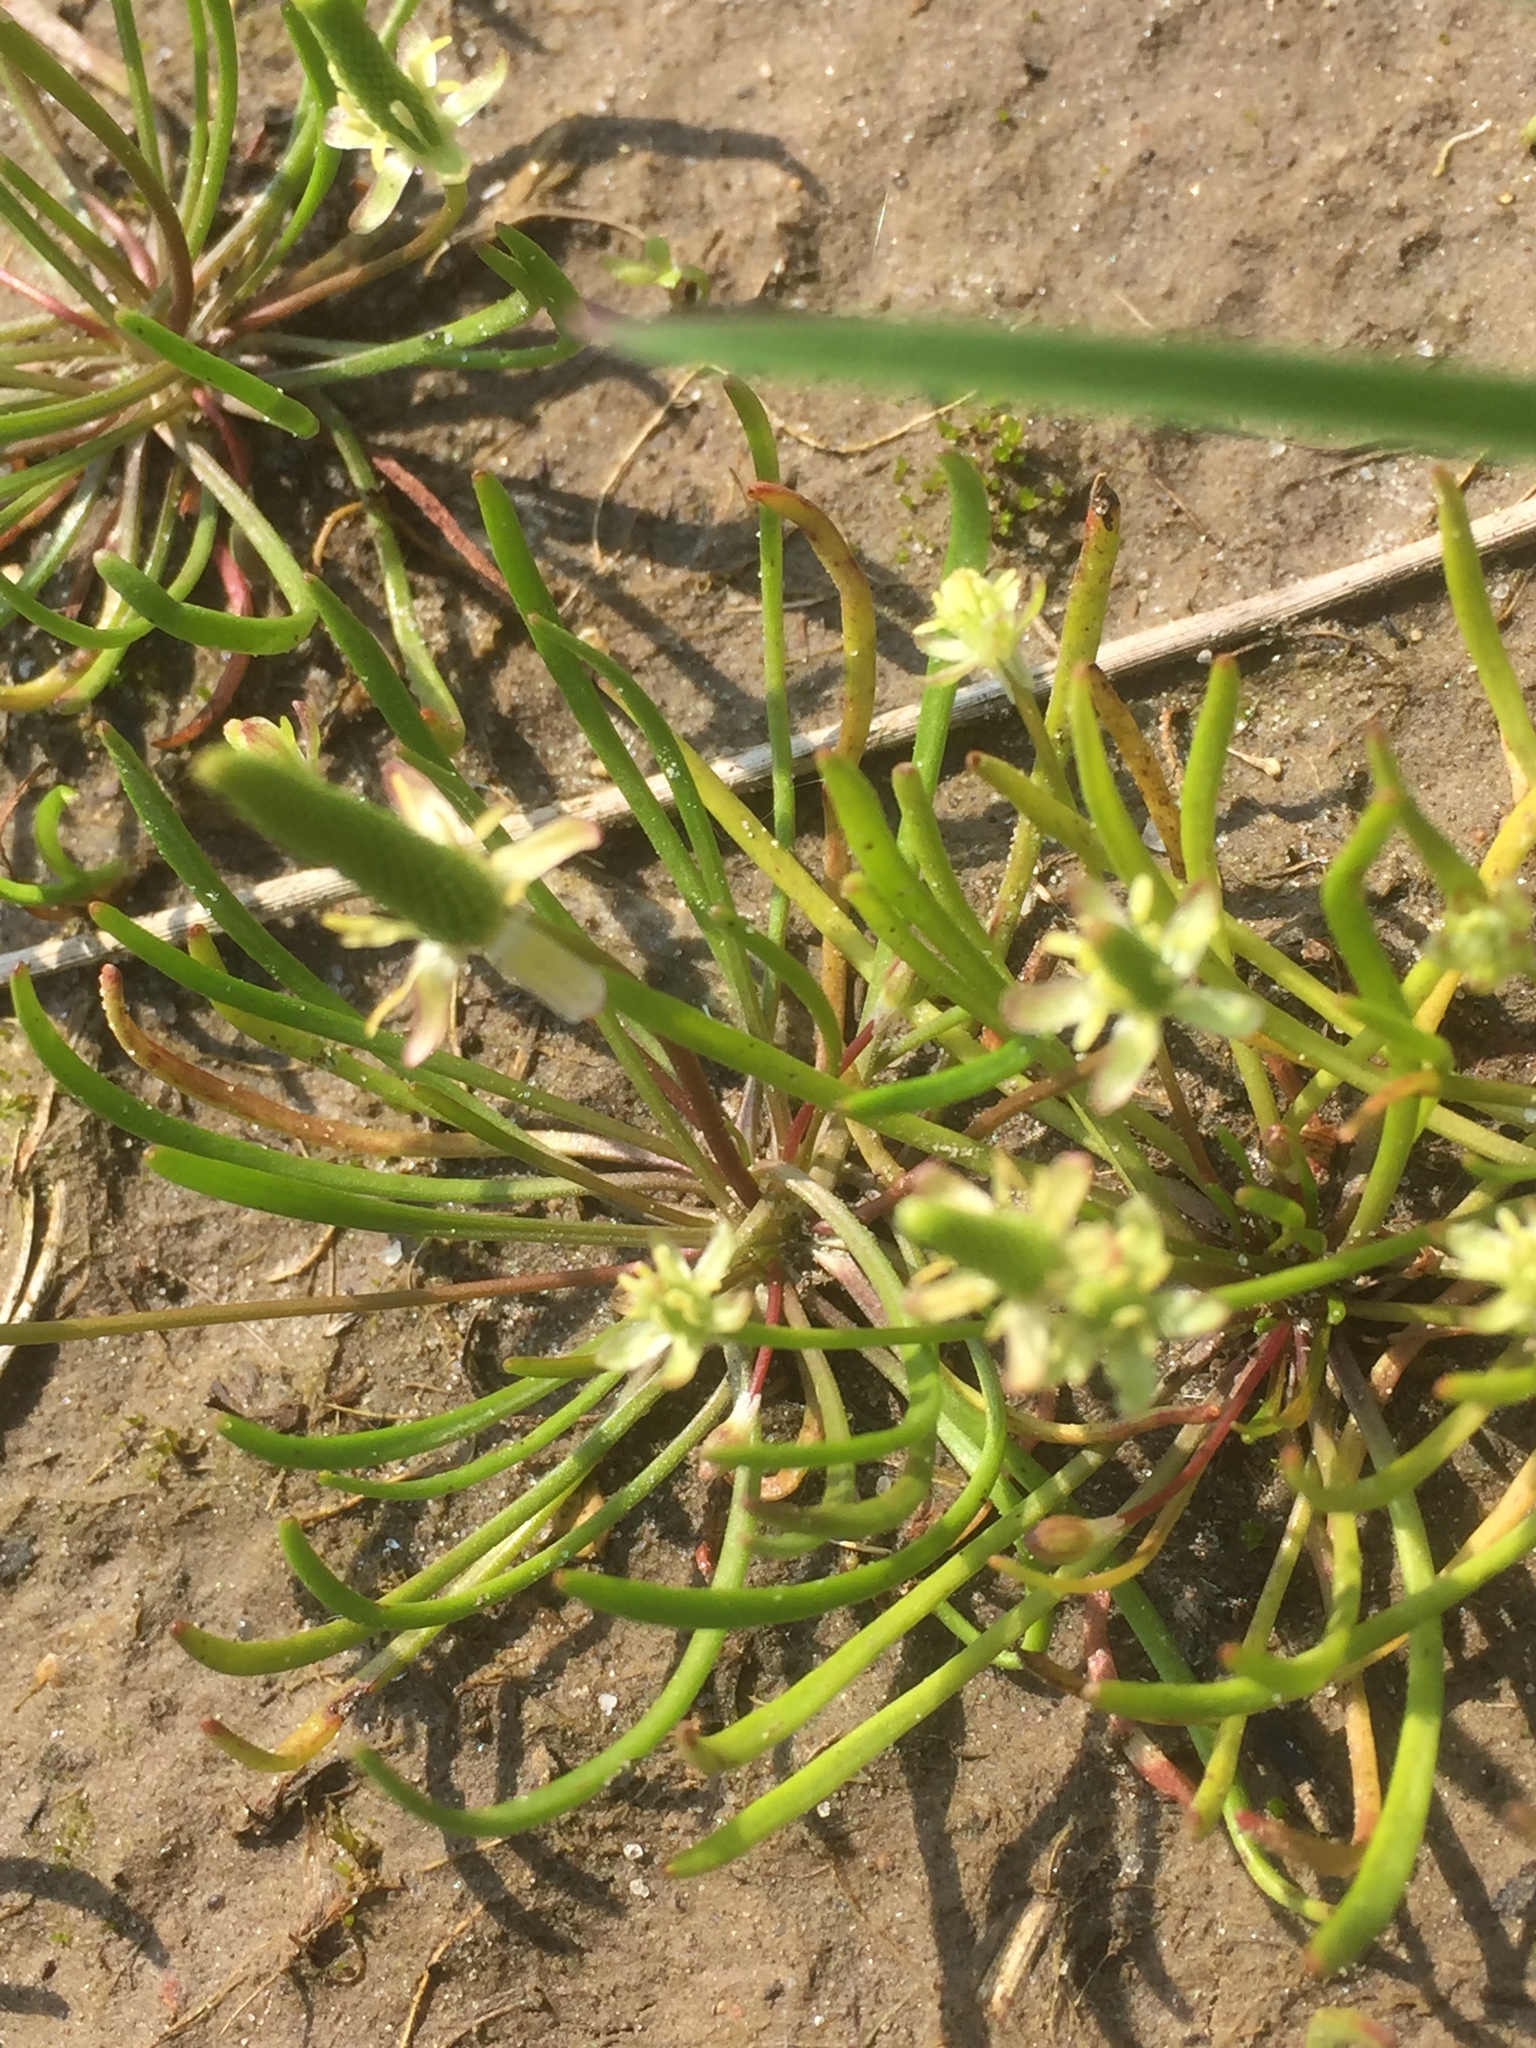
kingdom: Plantae
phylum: Tracheophyta
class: Magnoliopsida
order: Ranunculales
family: Ranunculaceae
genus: Myosurus
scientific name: Myosurus minimus
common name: Mousetail
